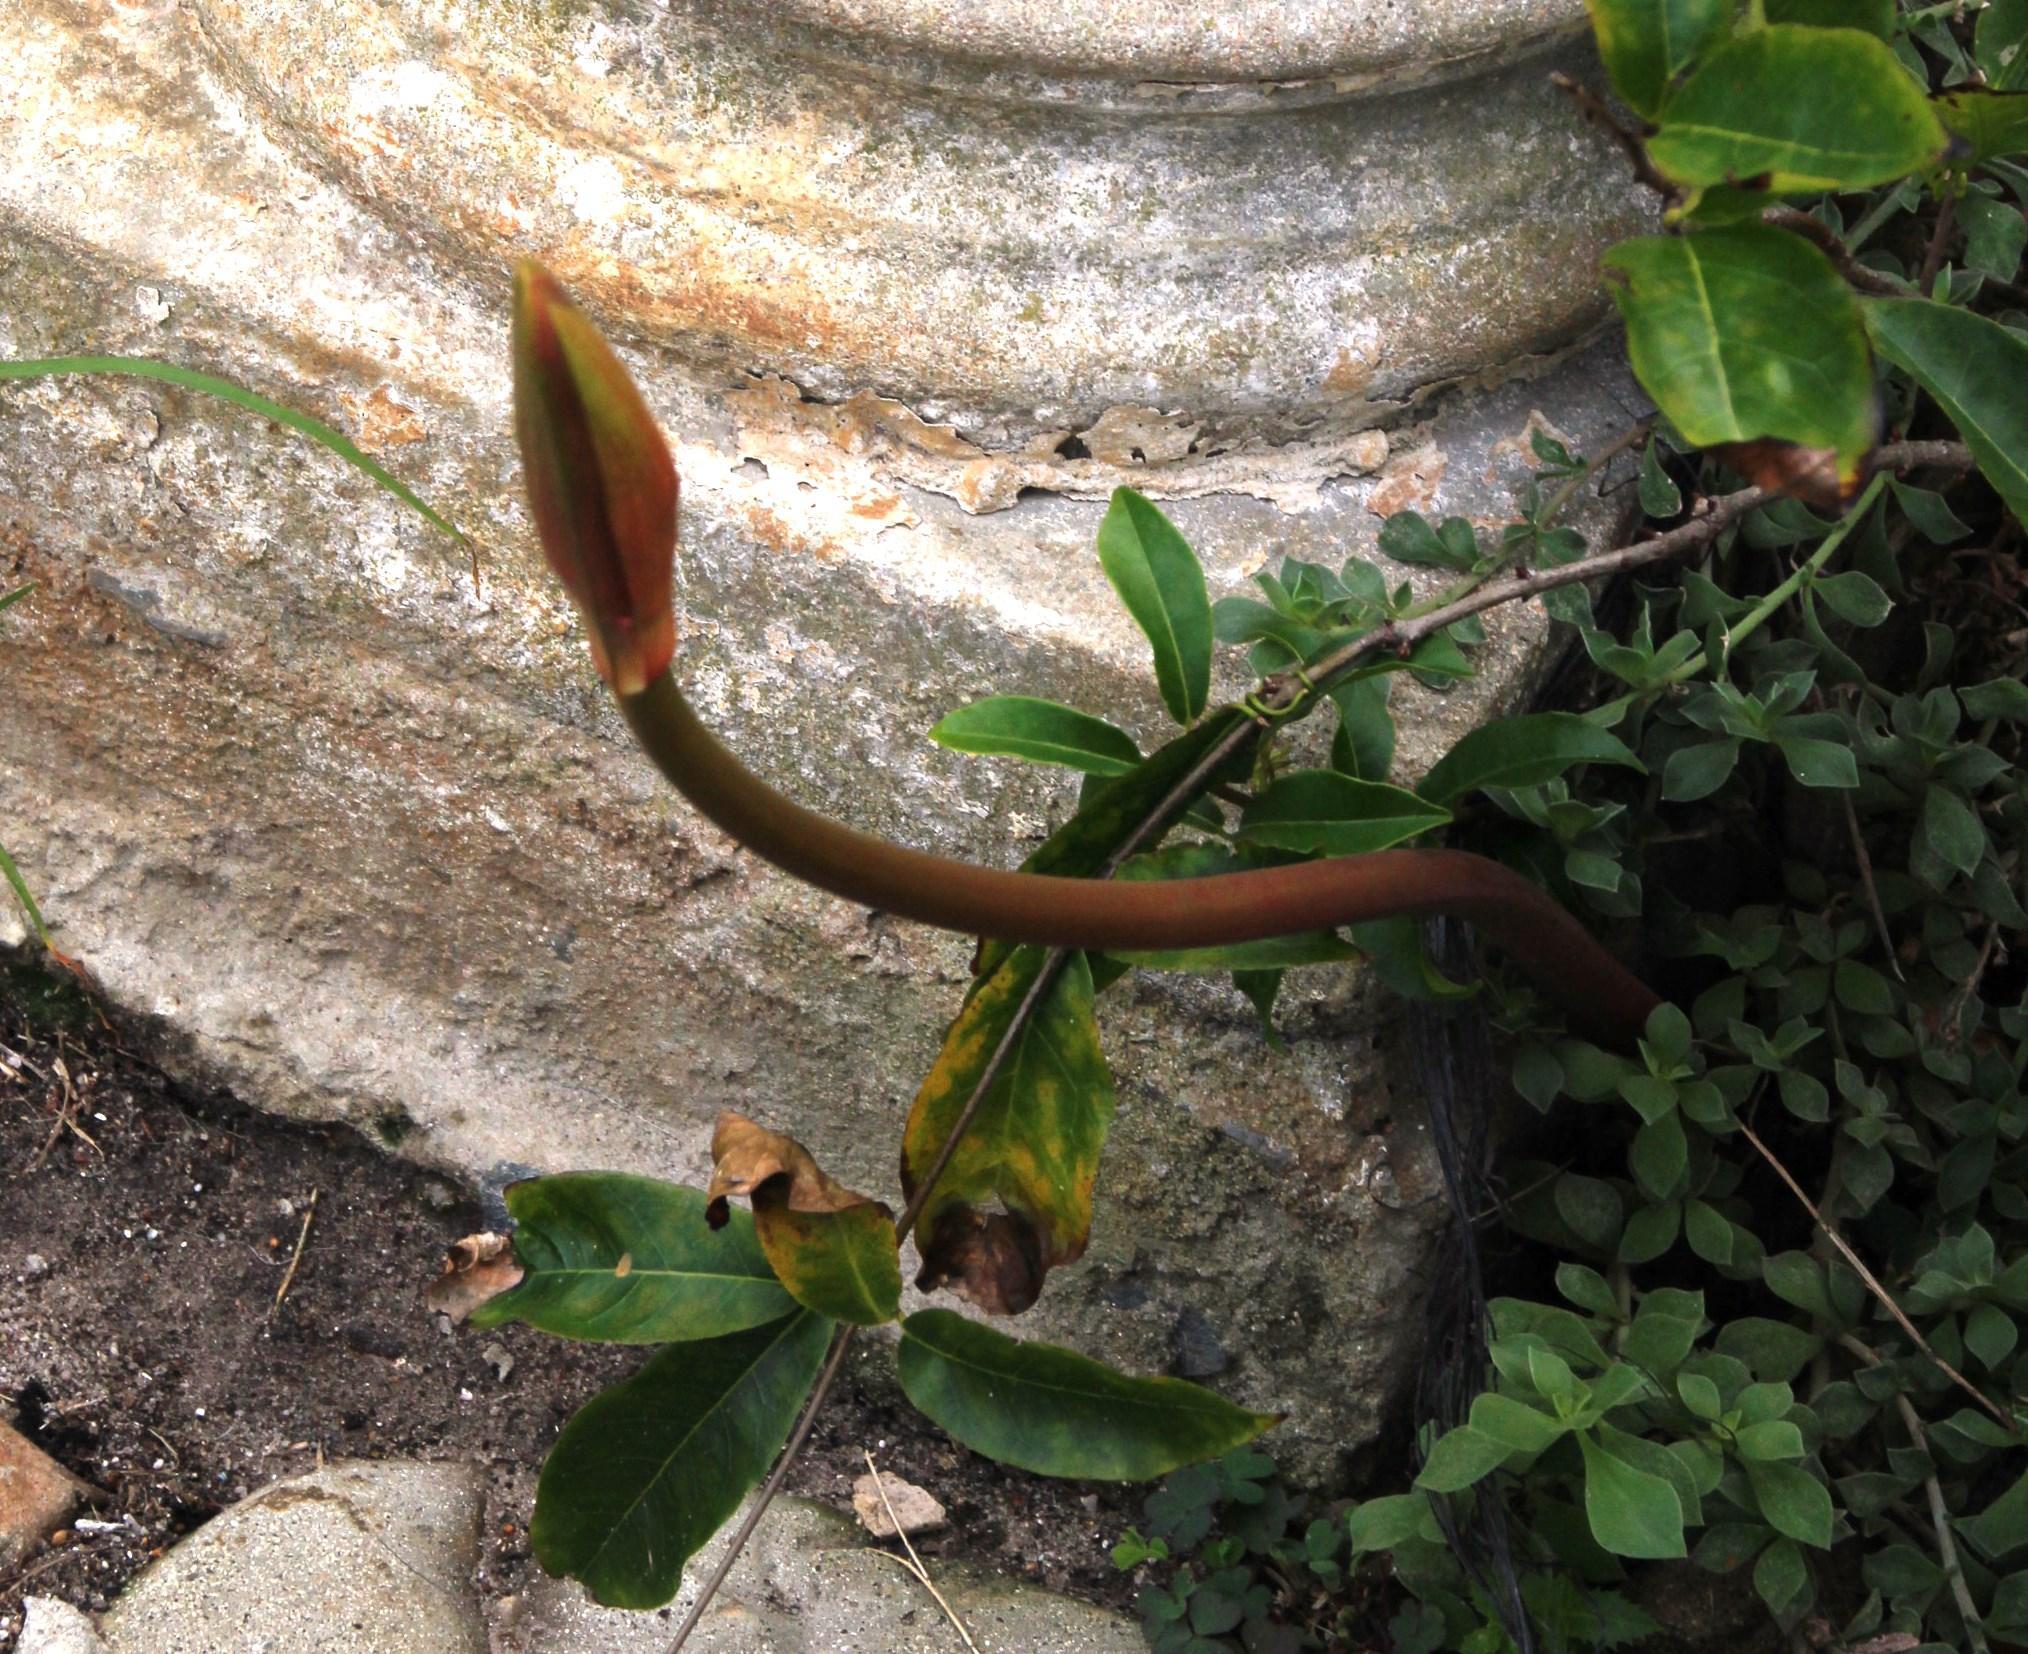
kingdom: Plantae
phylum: Tracheophyta
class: Liliopsida
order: Asparagales
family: Amaryllidaceae
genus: Amaryllis
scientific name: Amaryllis belladonna
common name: Jersey lily
